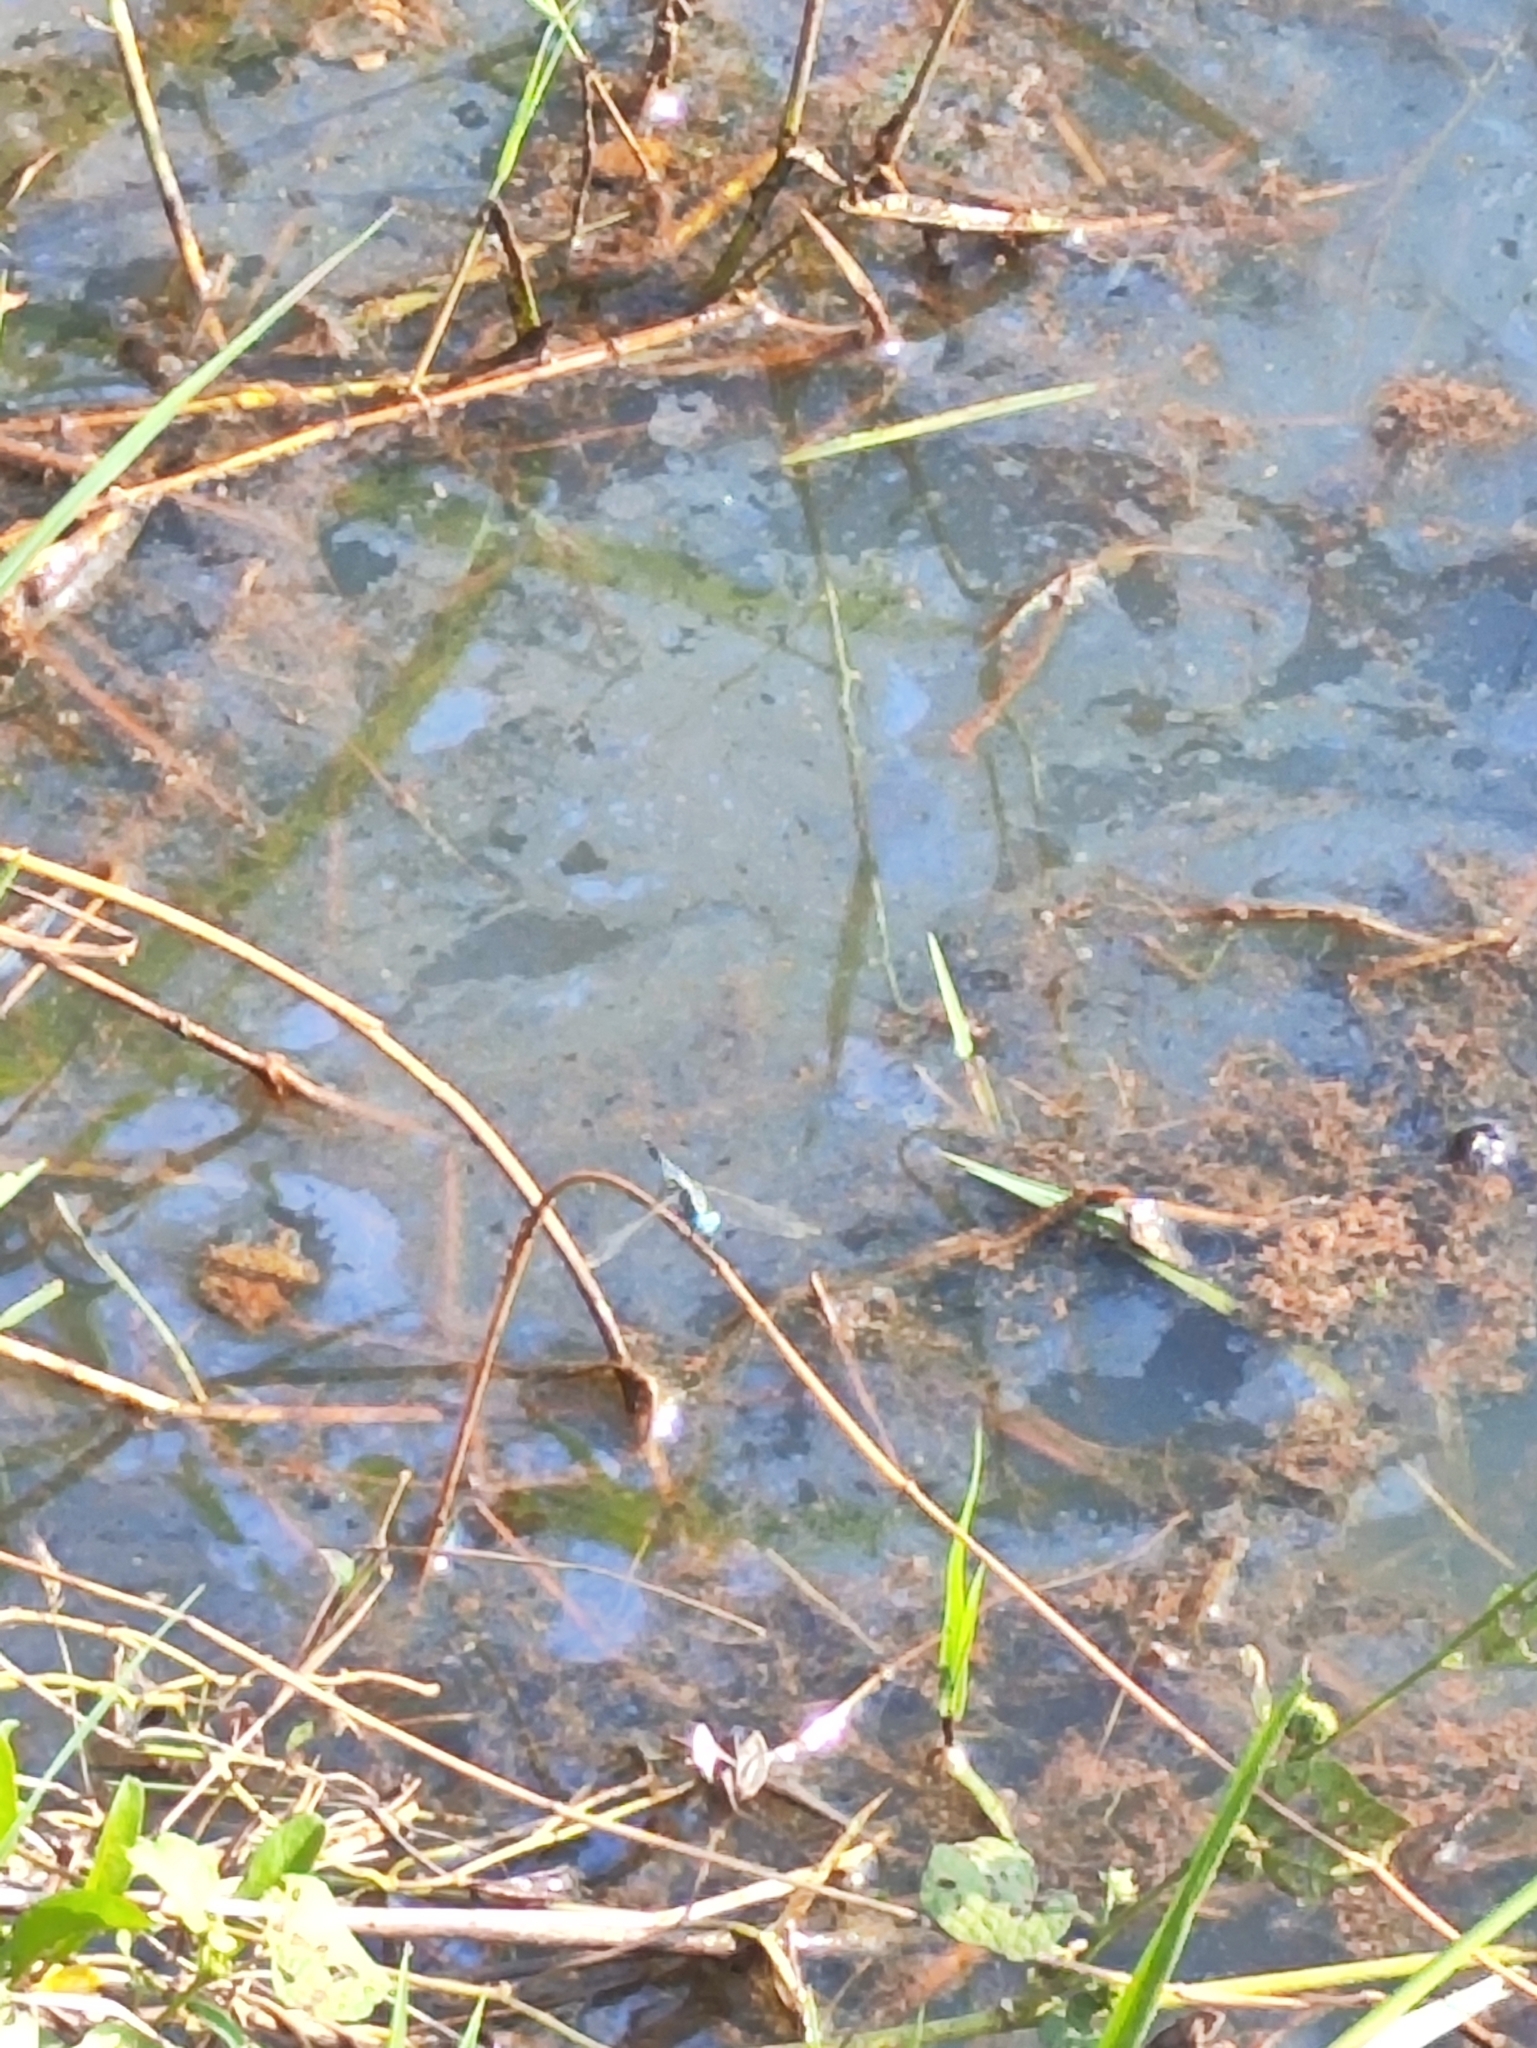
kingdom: Animalia
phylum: Arthropoda
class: Insecta
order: Odonata
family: Libellulidae
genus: Acisoma
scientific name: Acisoma panorpoides
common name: Asian pintail
